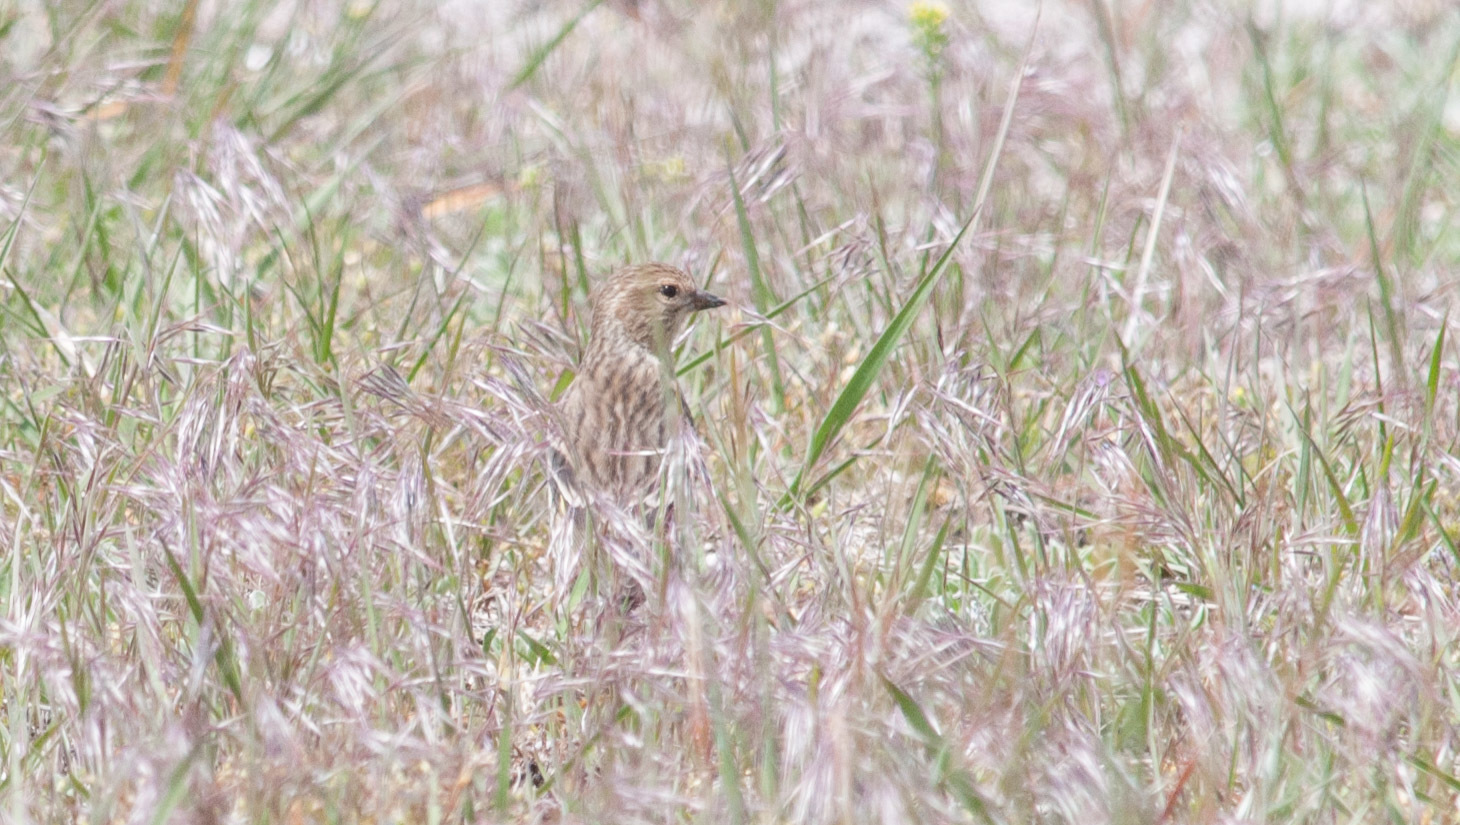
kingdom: Animalia
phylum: Chordata
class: Aves
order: Passeriformes
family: Fringillidae
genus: Spinus
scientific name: Spinus pinus
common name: Pine siskin
